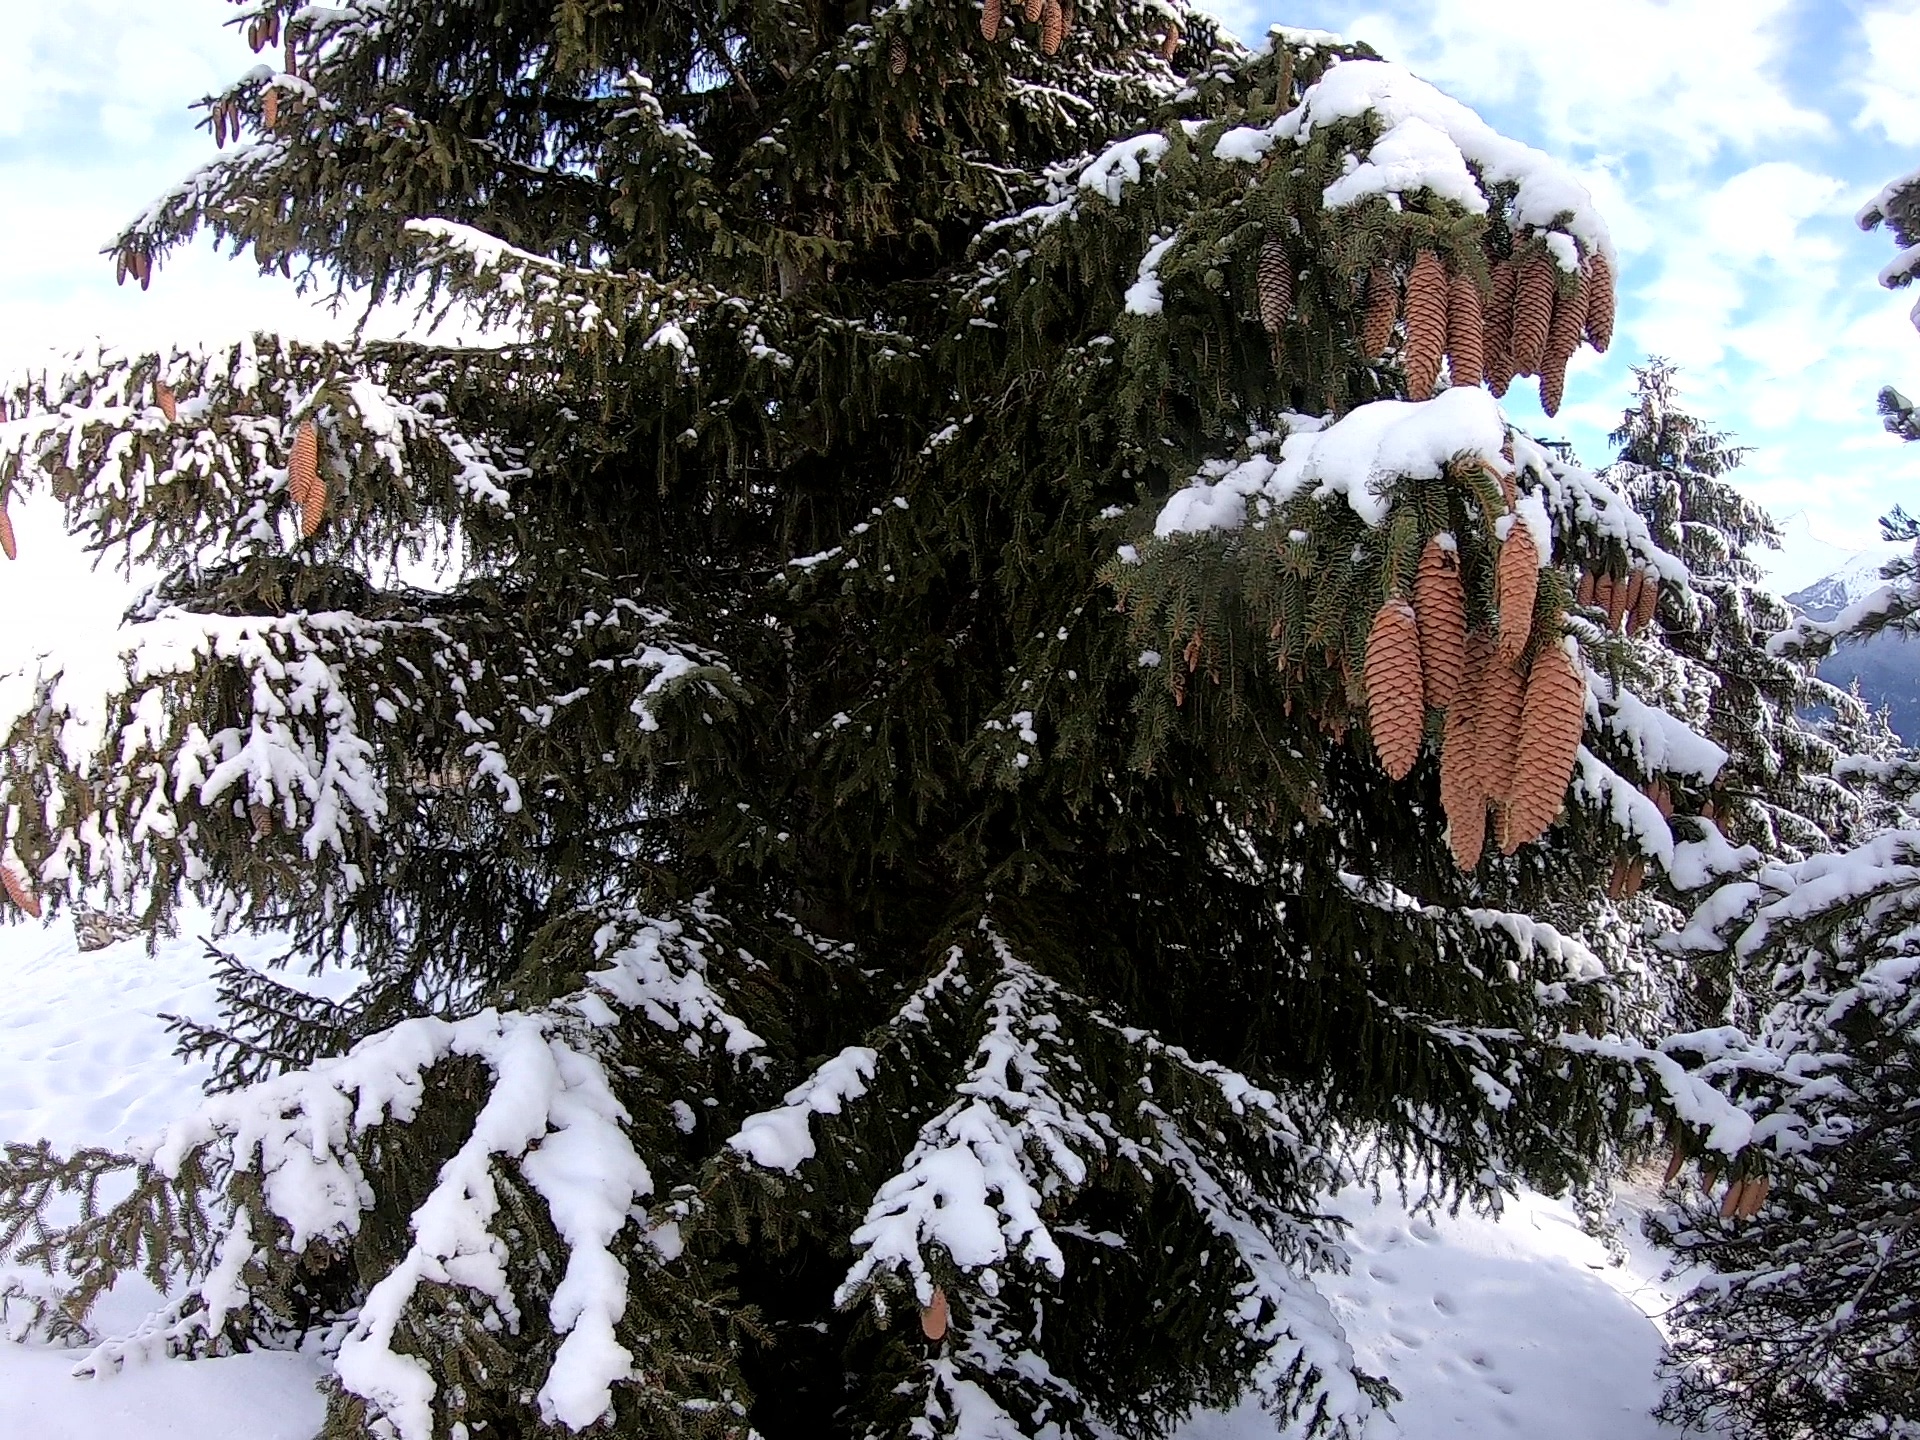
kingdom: Plantae
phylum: Tracheophyta
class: Pinopsida
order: Pinales
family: Pinaceae
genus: Picea
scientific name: Picea abies
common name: Norway spruce
